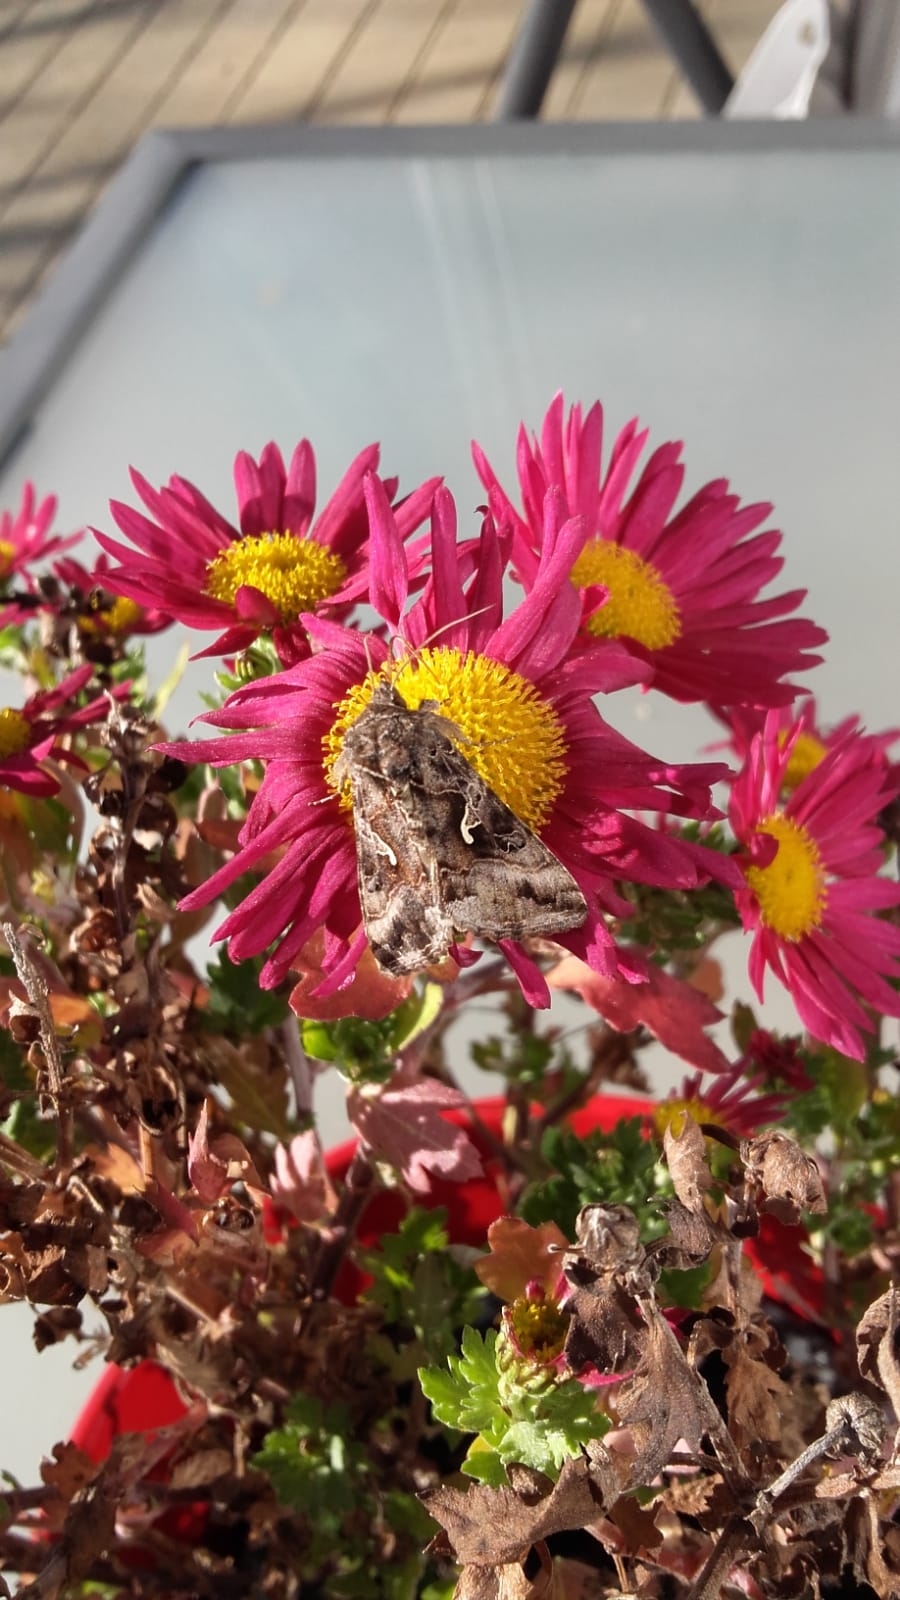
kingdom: Animalia
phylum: Arthropoda
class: Insecta
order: Lepidoptera
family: Noctuidae
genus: Autographa
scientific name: Autographa gamma
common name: Silver y
